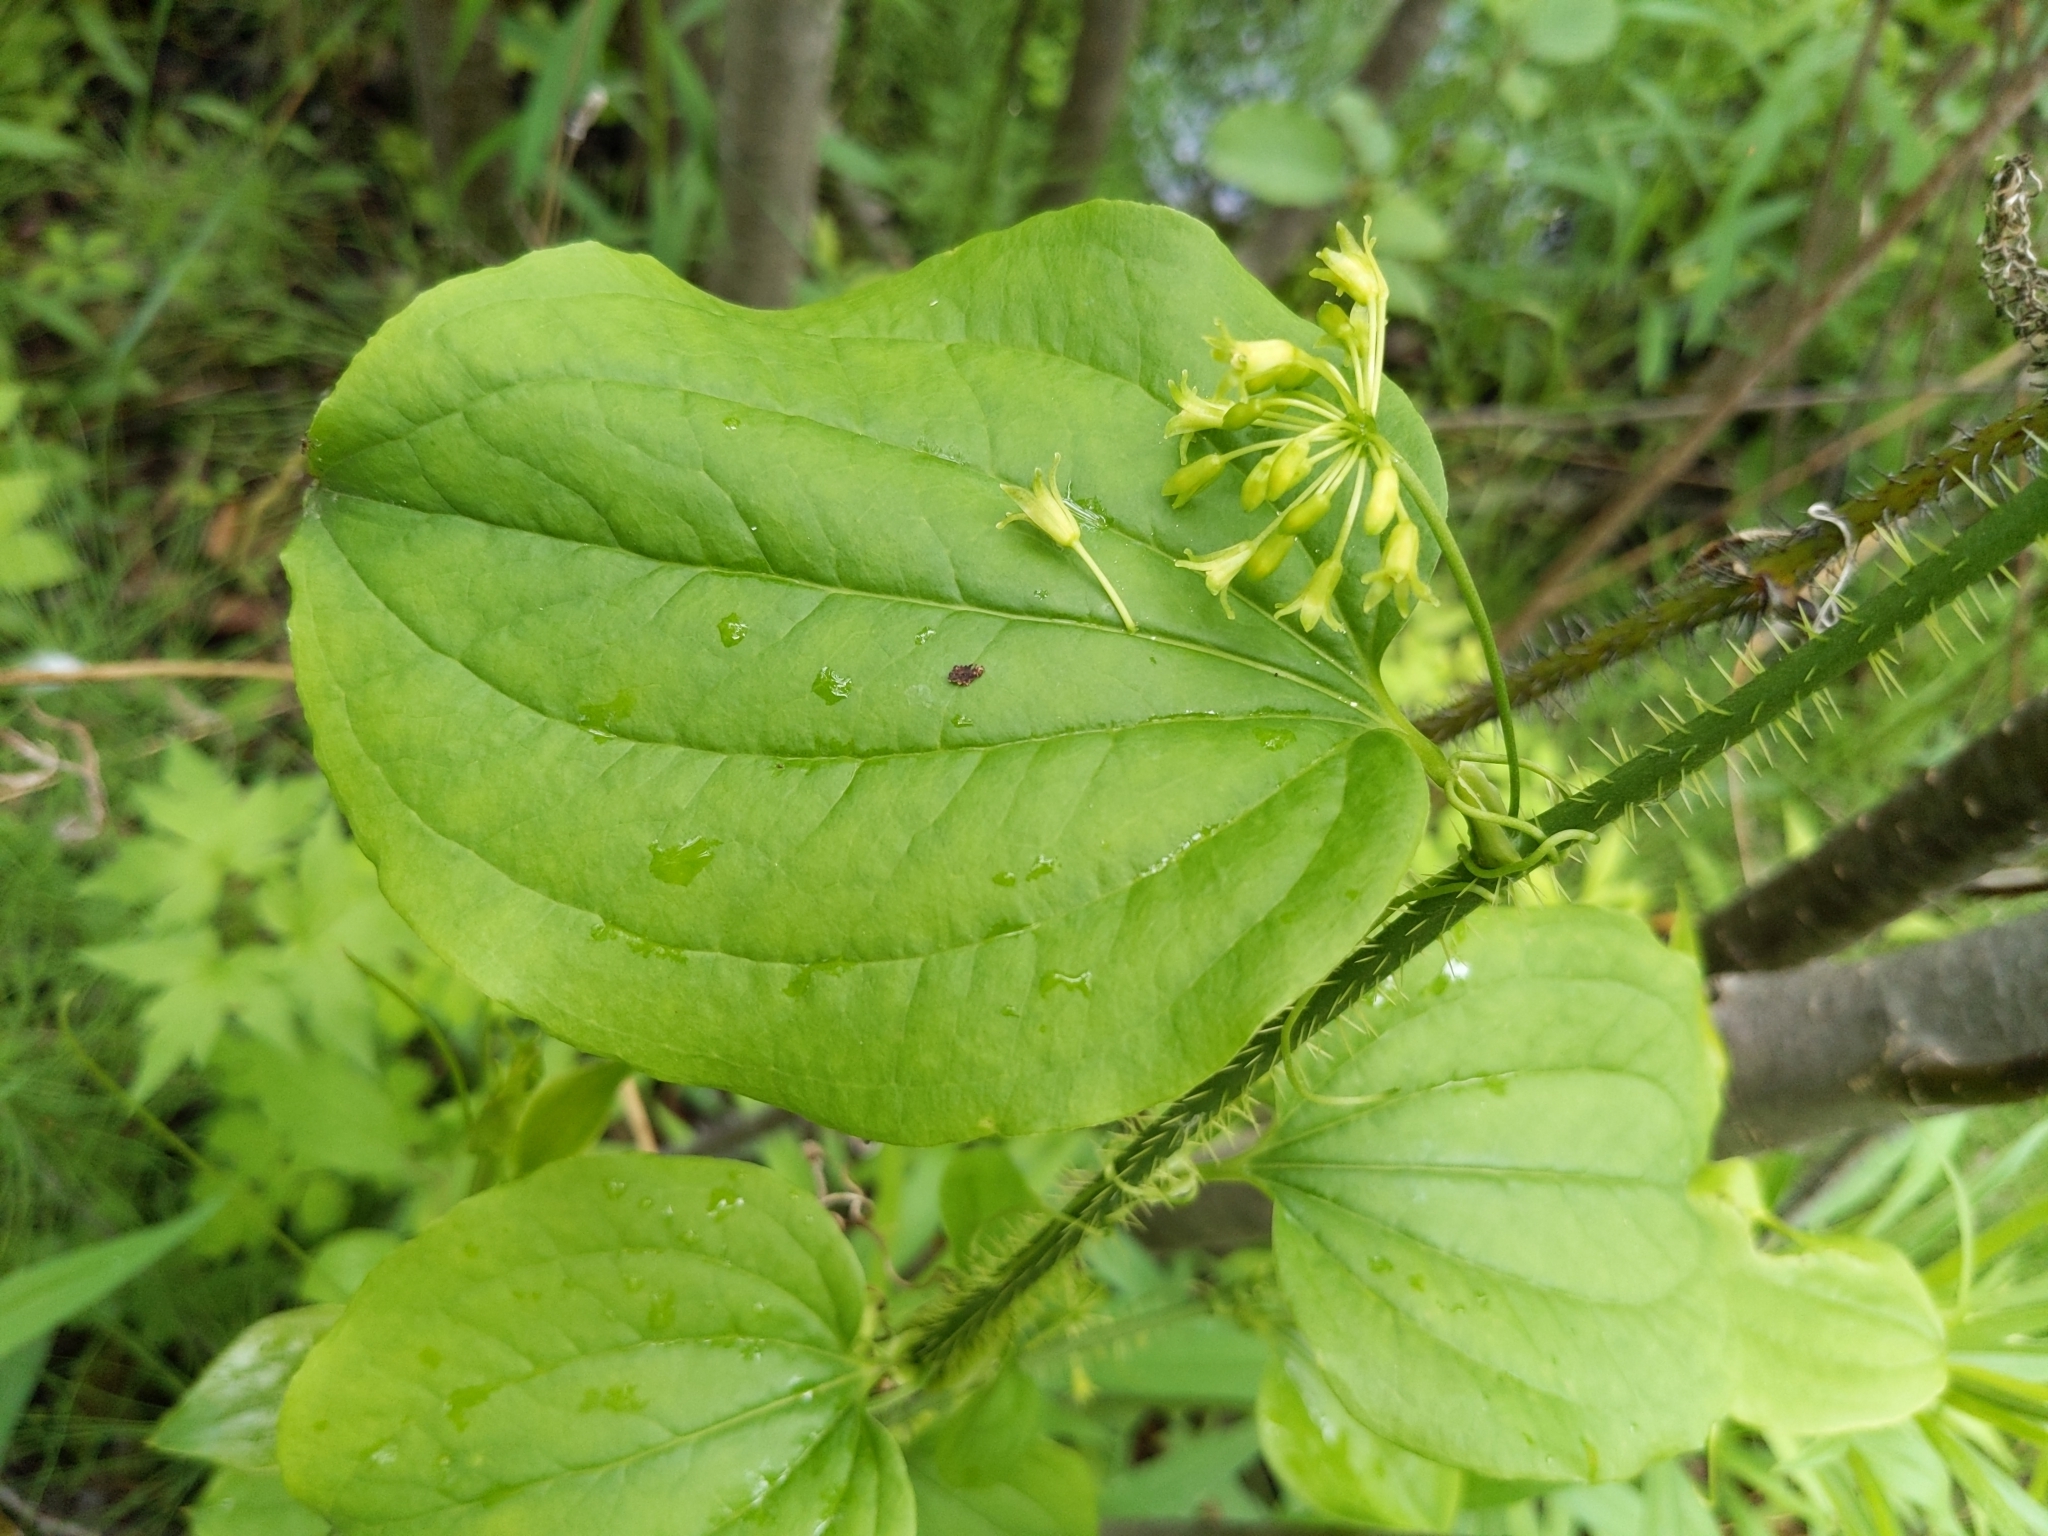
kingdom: Plantae
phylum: Tracheophyta
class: Liliopsida
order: Liliales
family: Smilacaceae
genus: Smilax
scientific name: Smilax tamnoides
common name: Hellfetter
